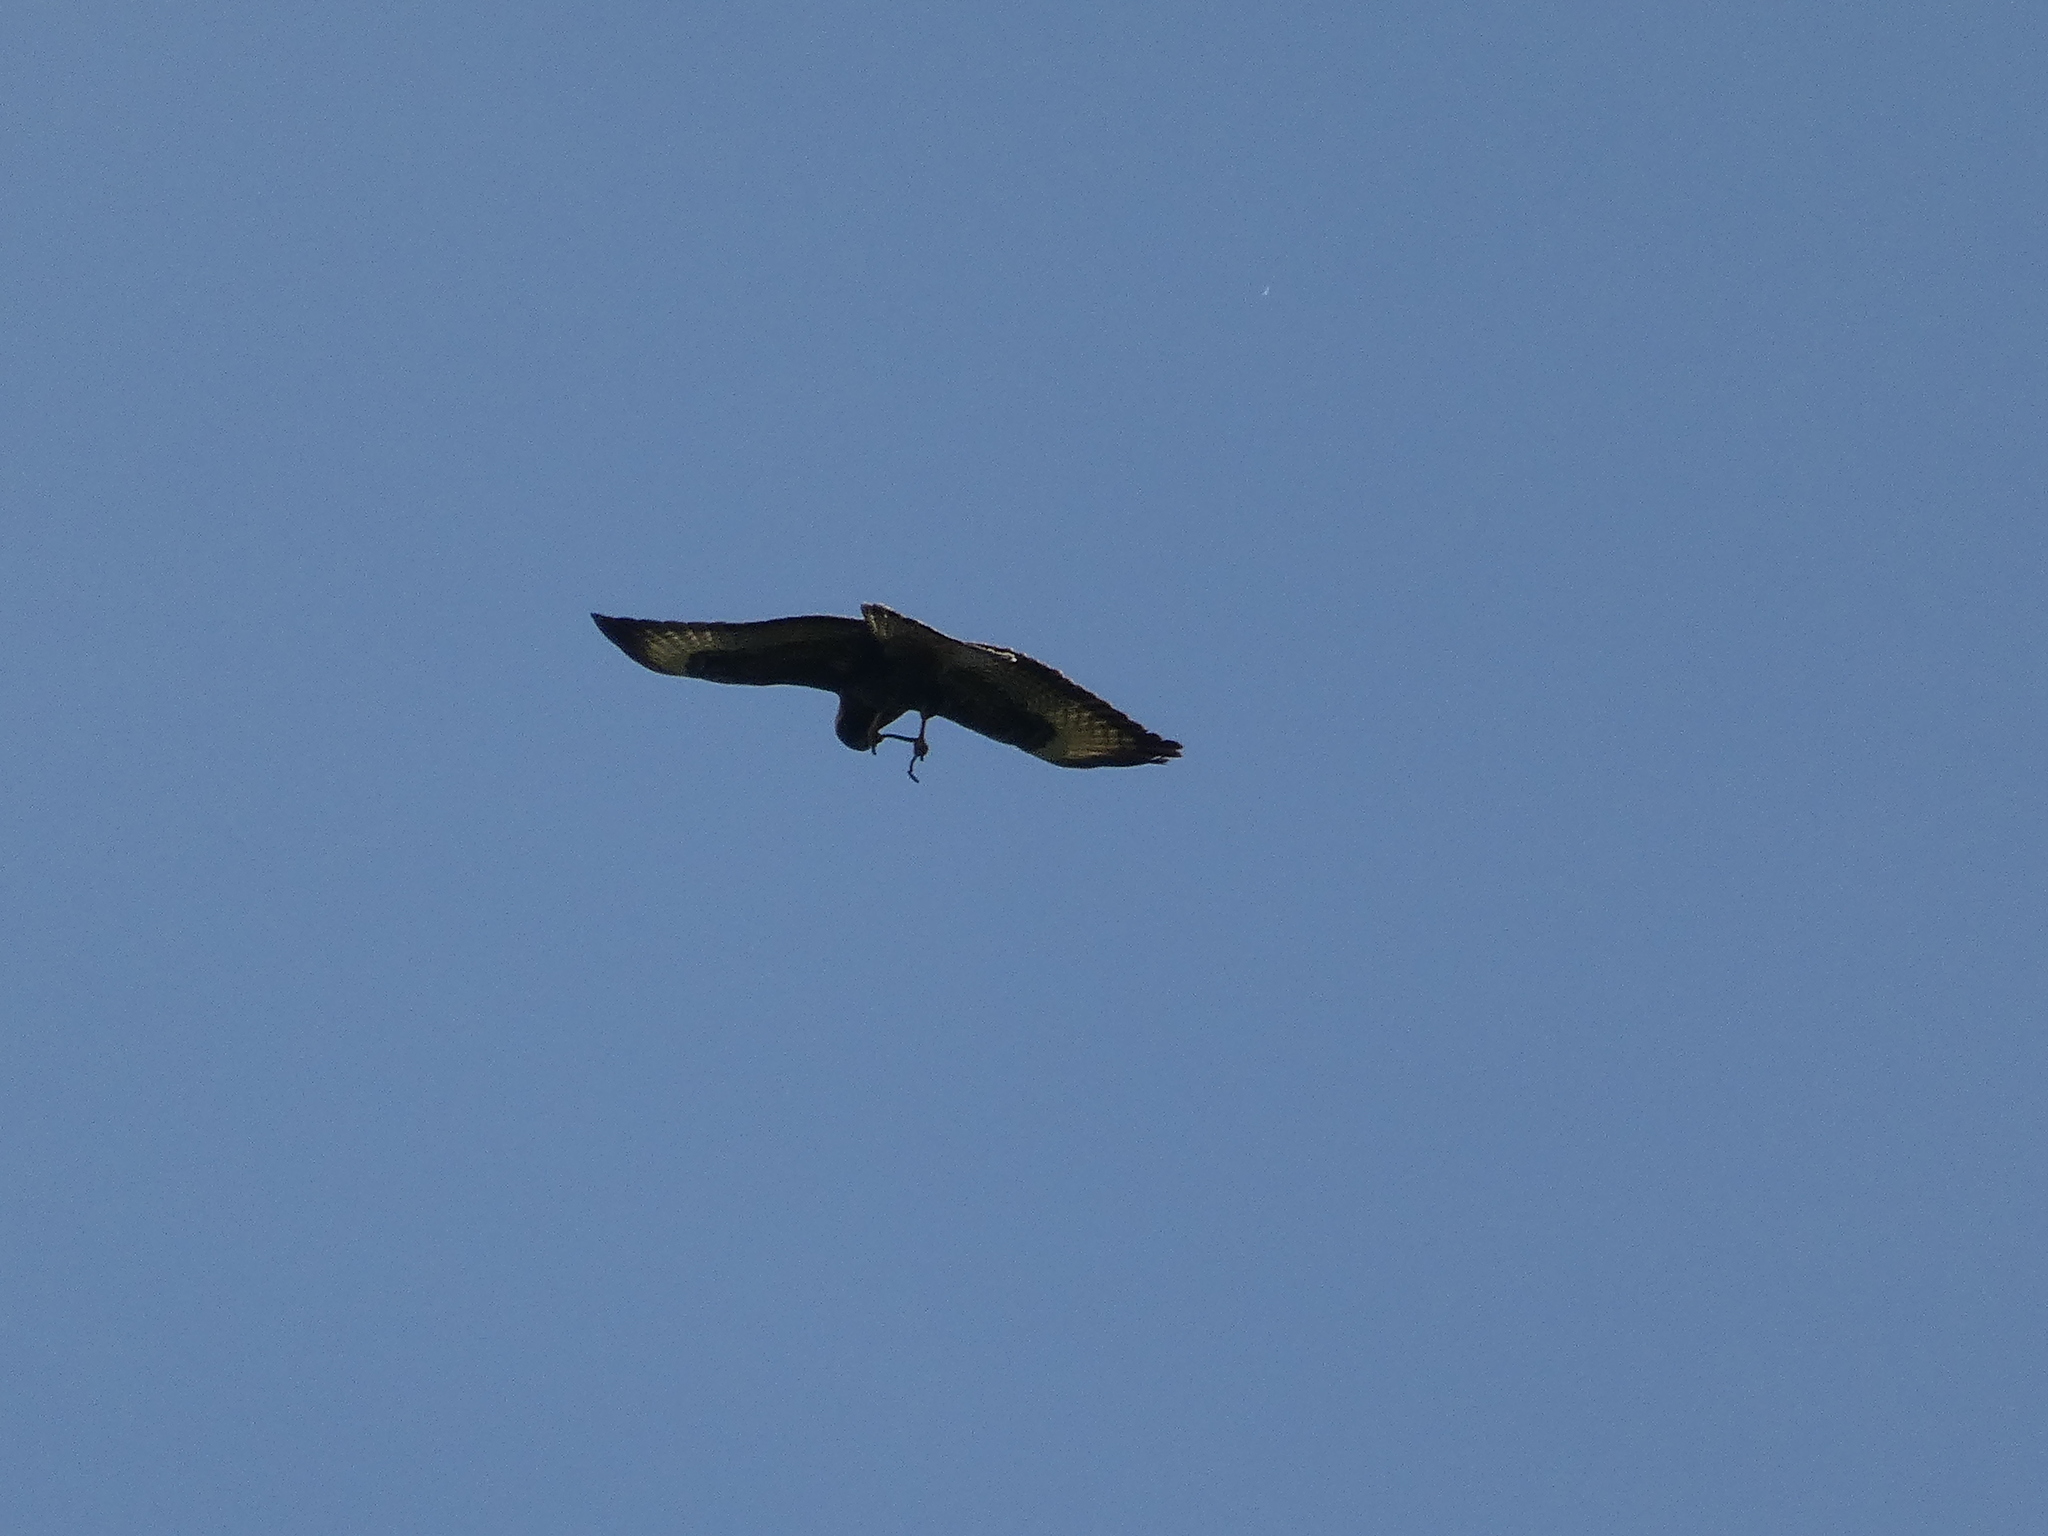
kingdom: Animalia
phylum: Chordata
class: Aves
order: Accipitriformes
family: Accipitridae
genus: Buteo
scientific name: Buteo buteo
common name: Common buzzard
